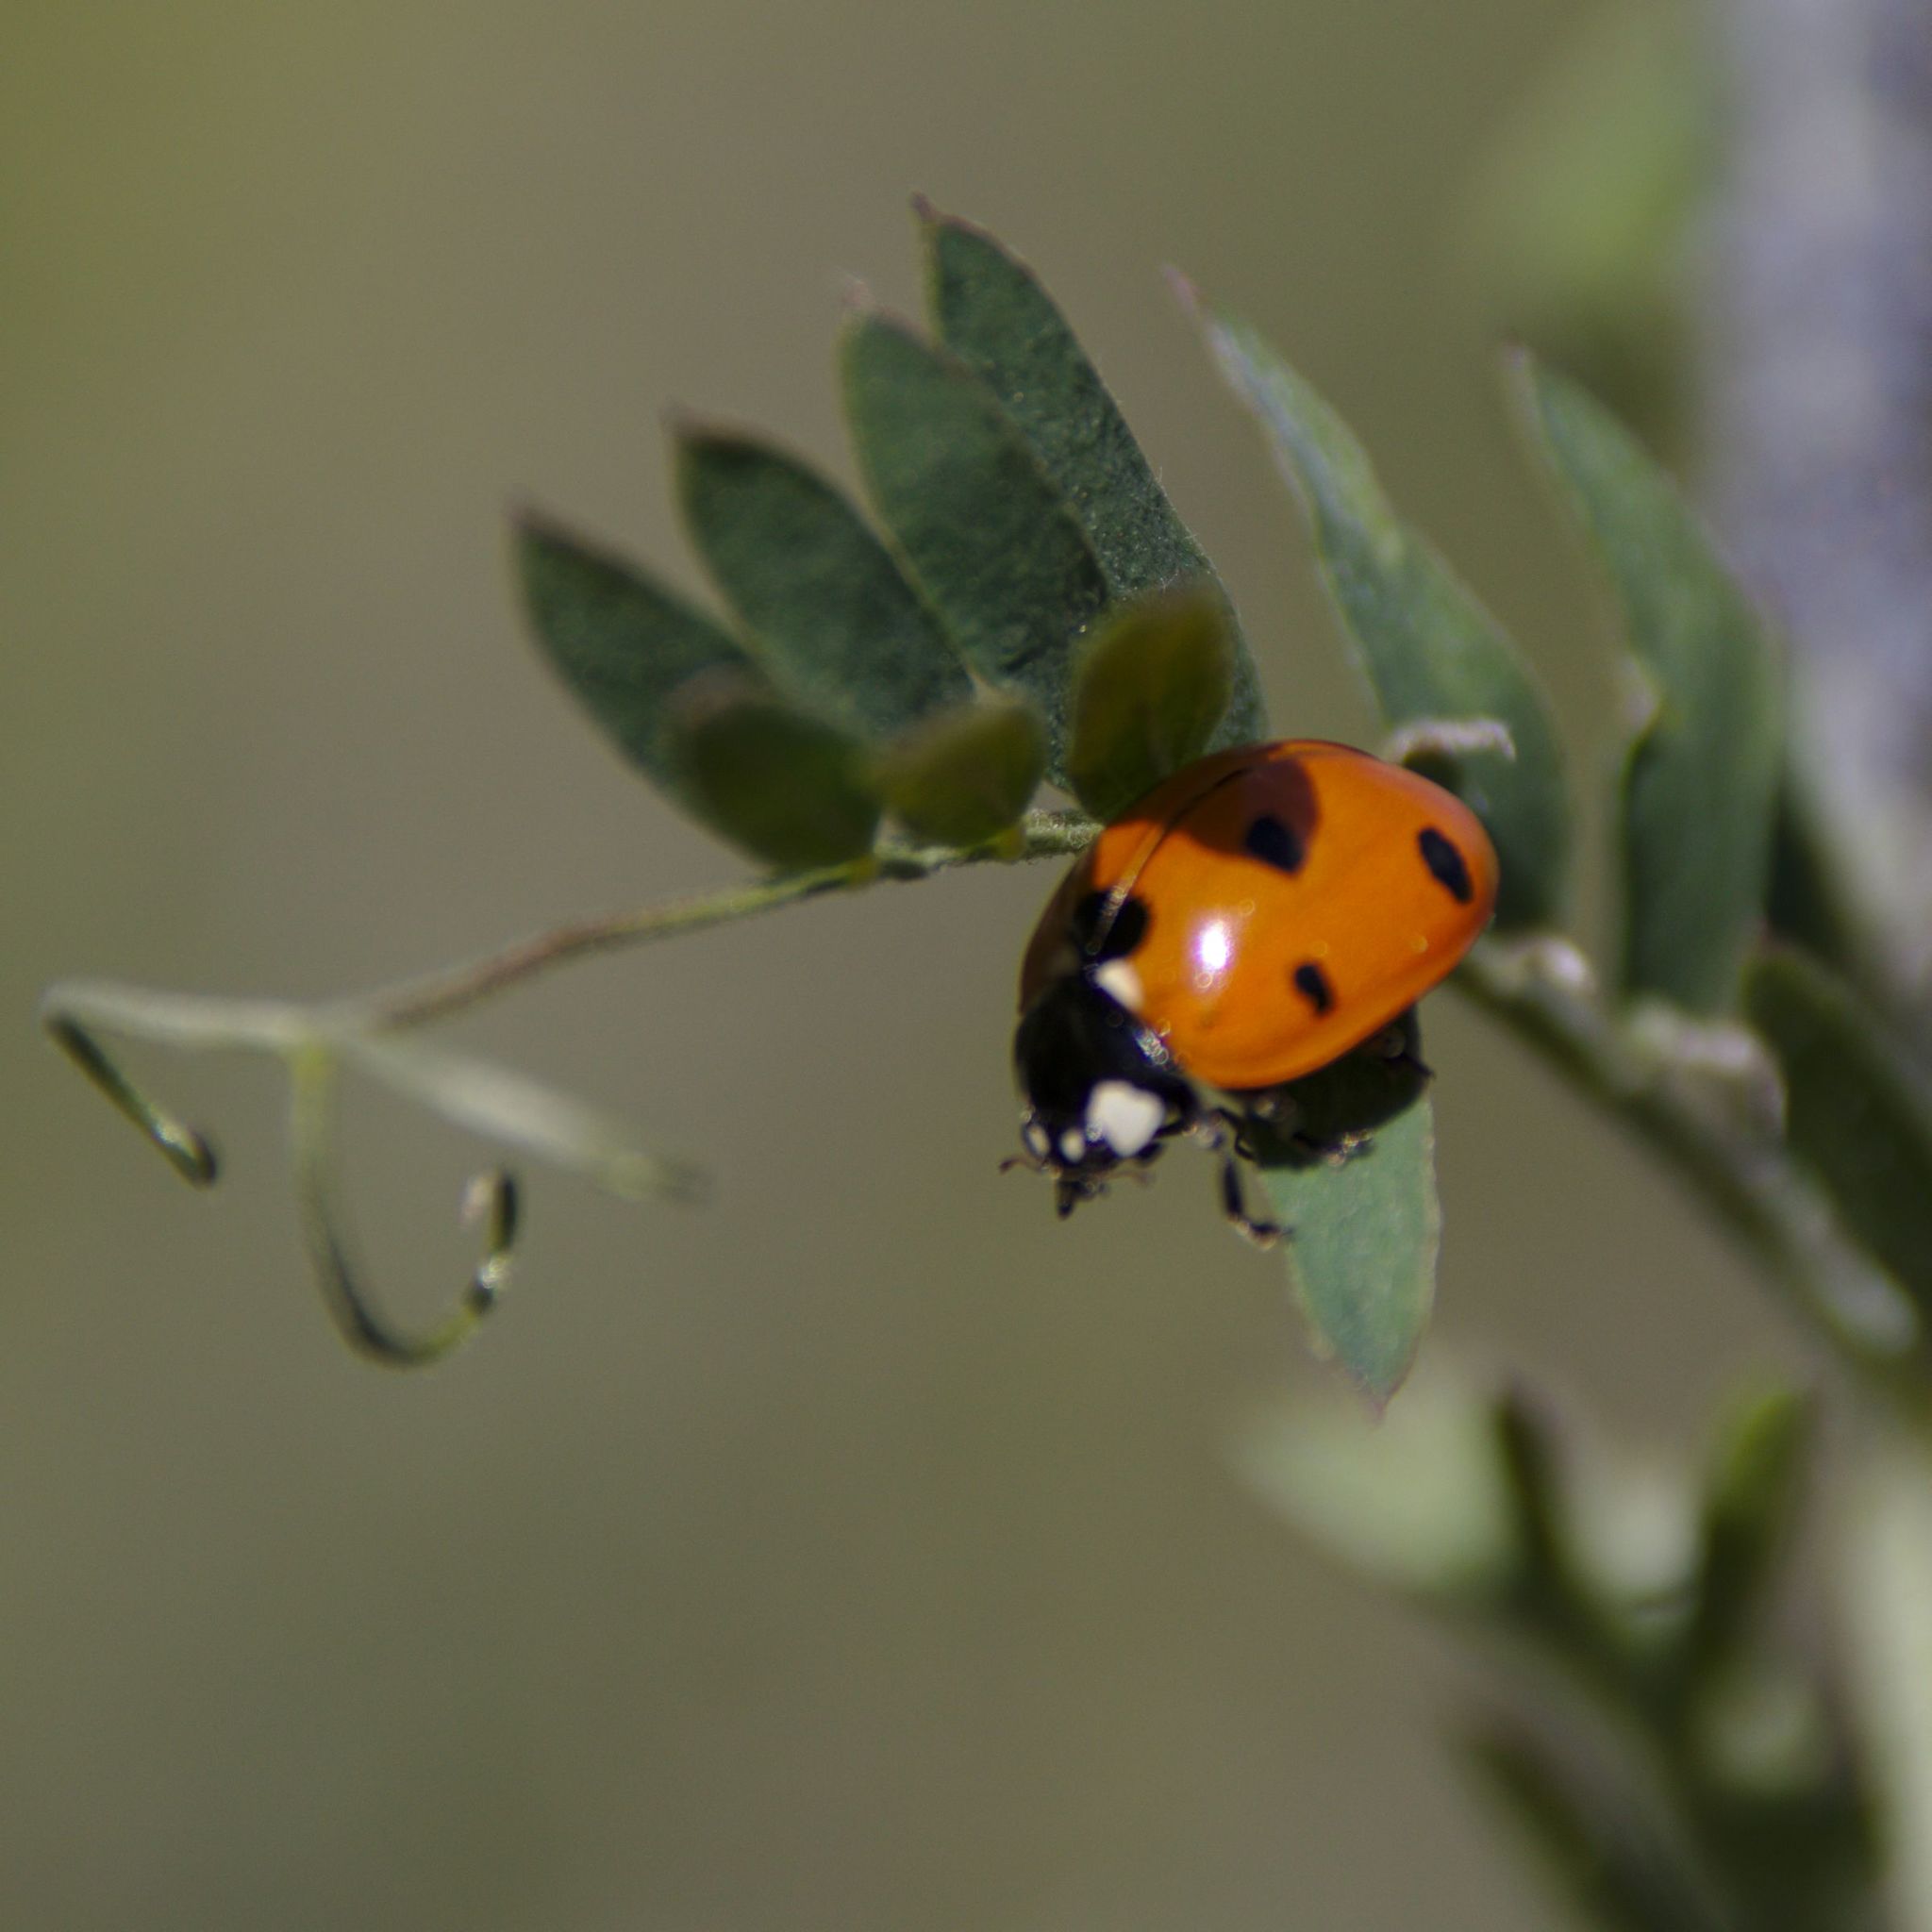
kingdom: Animalia
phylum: Arthropoda
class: Insecta
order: Coleoptera
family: Coccinellidae
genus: Coccinella
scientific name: Coccinella septempunctata
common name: Sevenspotted lady beetle
